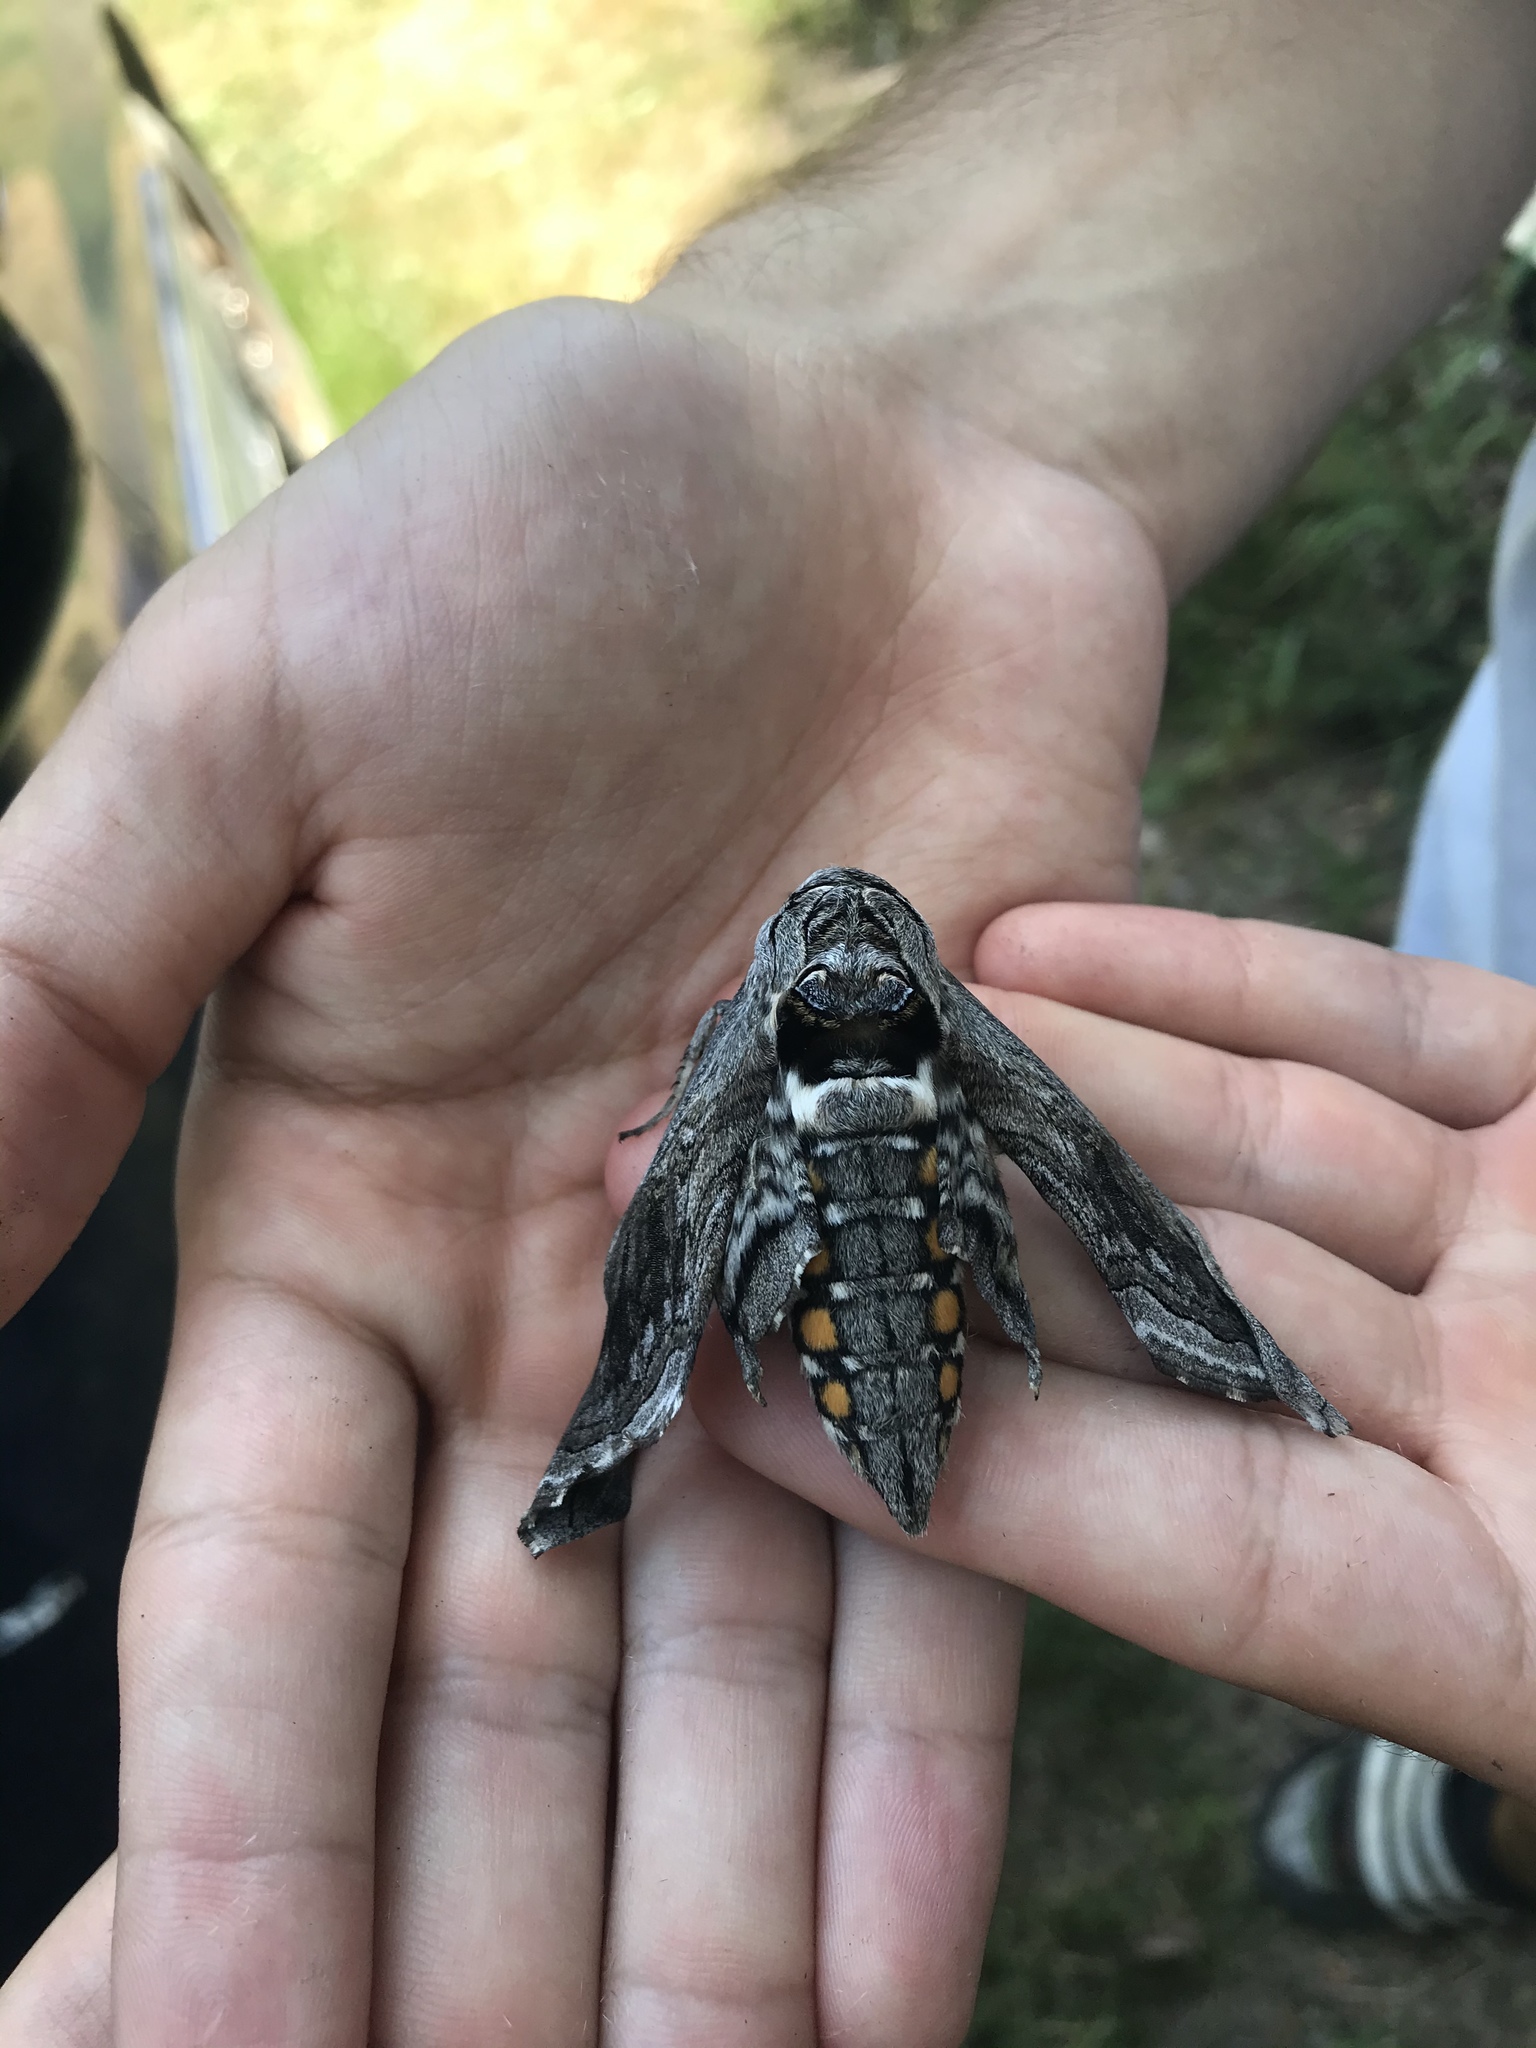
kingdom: Animalia
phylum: Arthropoda
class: Insecta
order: Lepidoptera
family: Sphingidae
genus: Manduca
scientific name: Manduca quinquemaculatus
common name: Five-spotted hawk-moth
